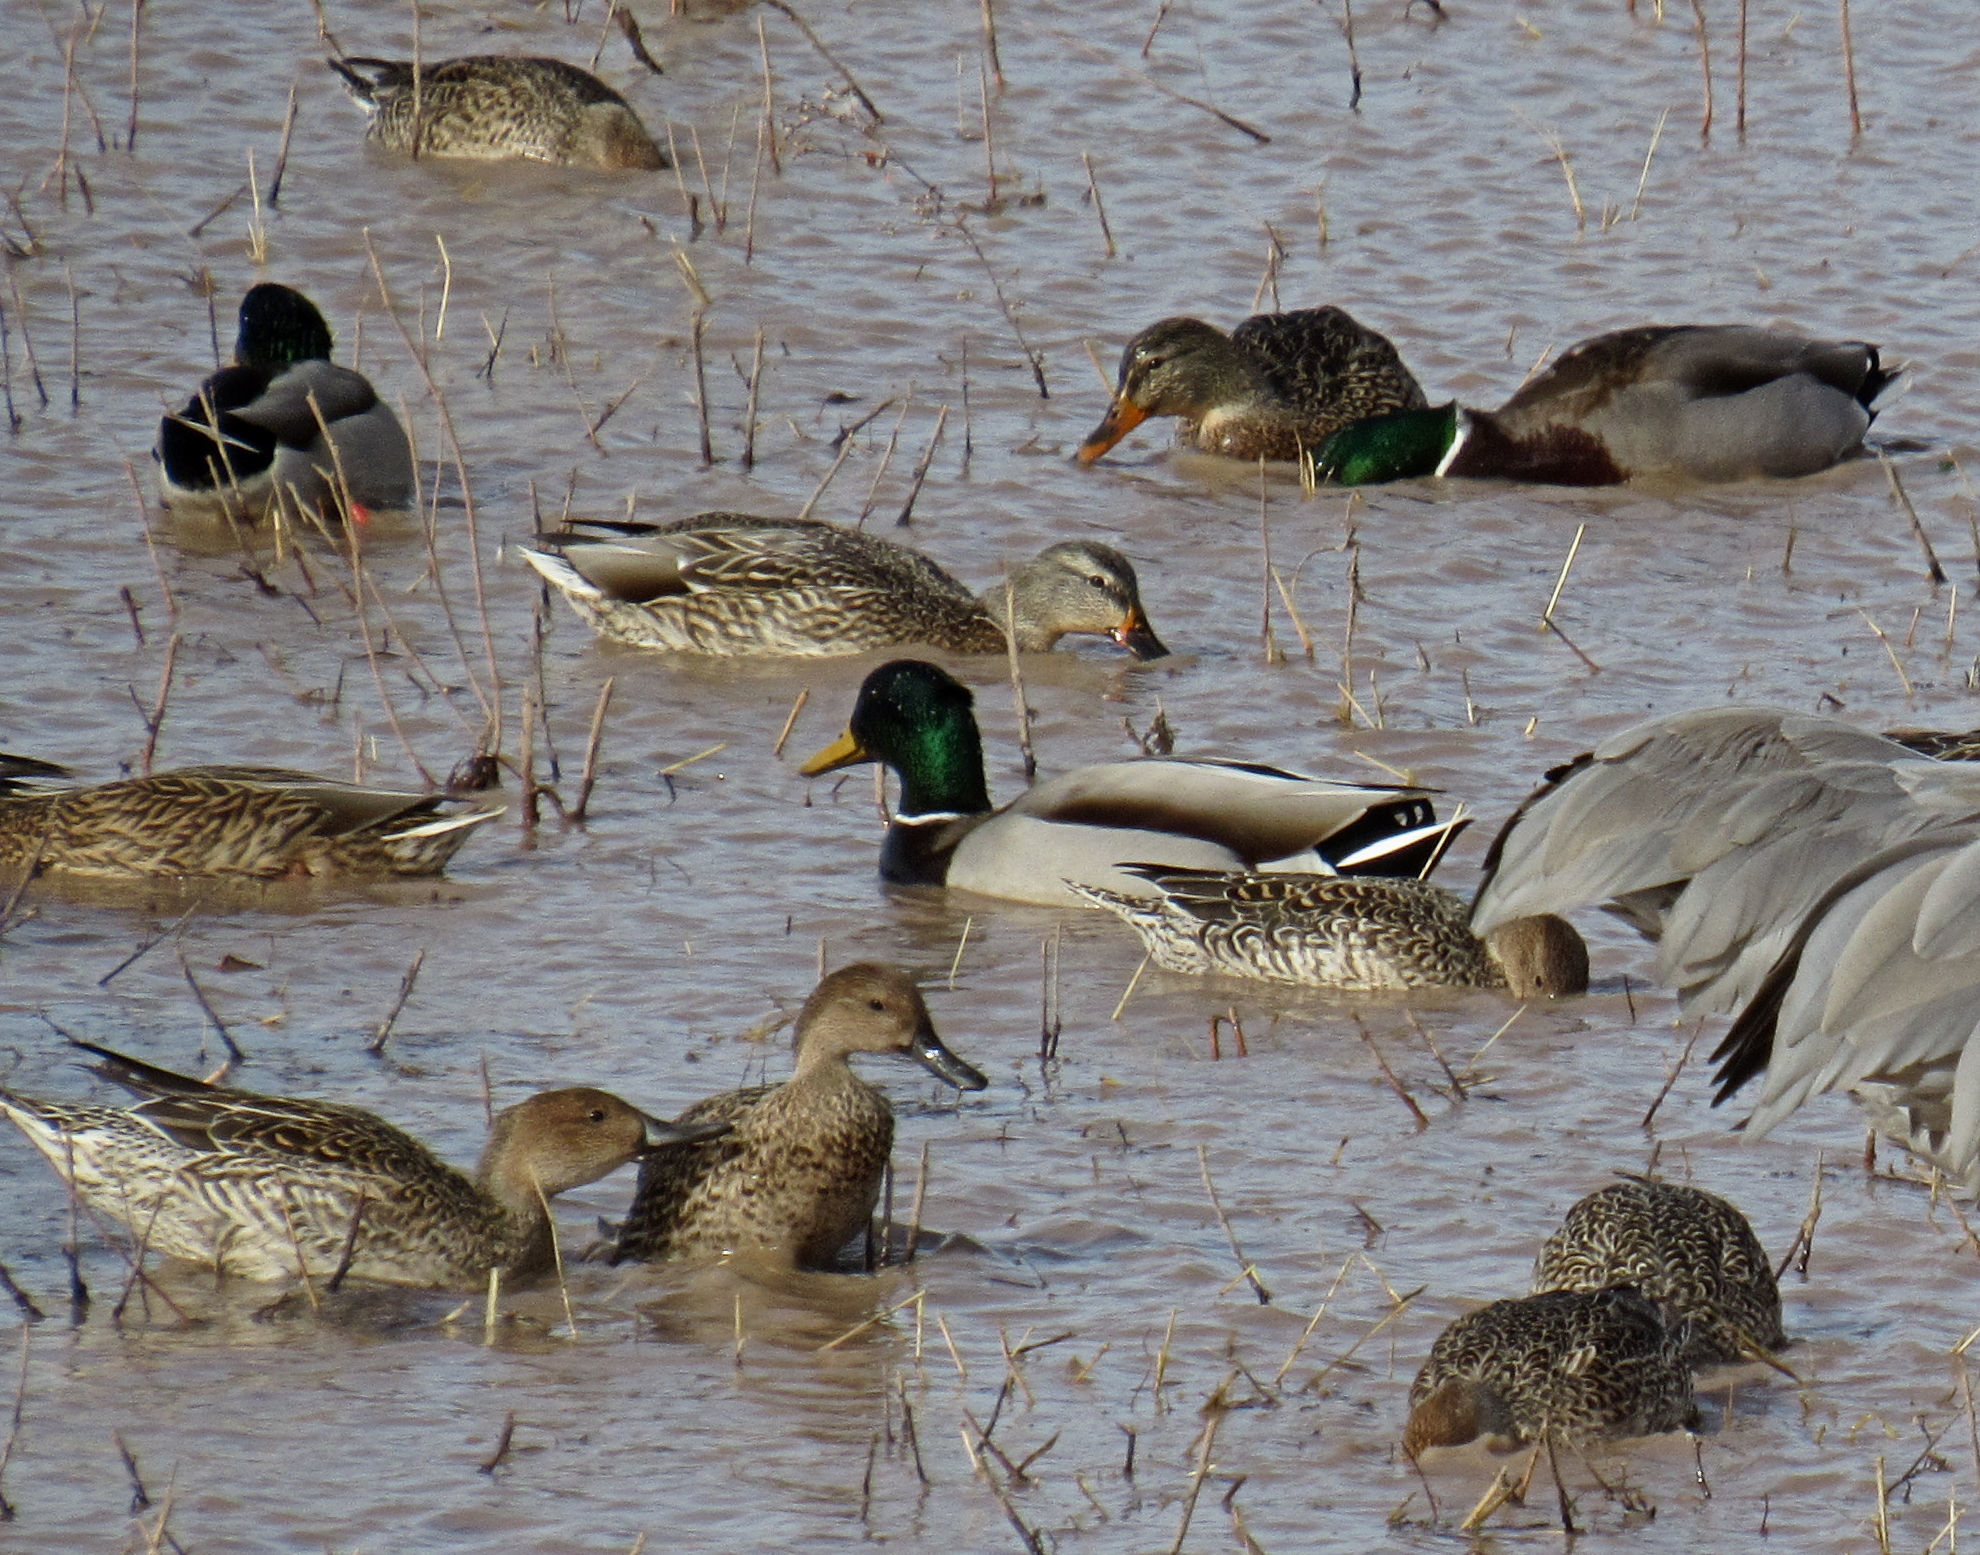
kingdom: Animalia
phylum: Chordata
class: Aves
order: Anseriformes
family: Anatidae
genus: Anas
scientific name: Anas platyrhynchos
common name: Mallard
